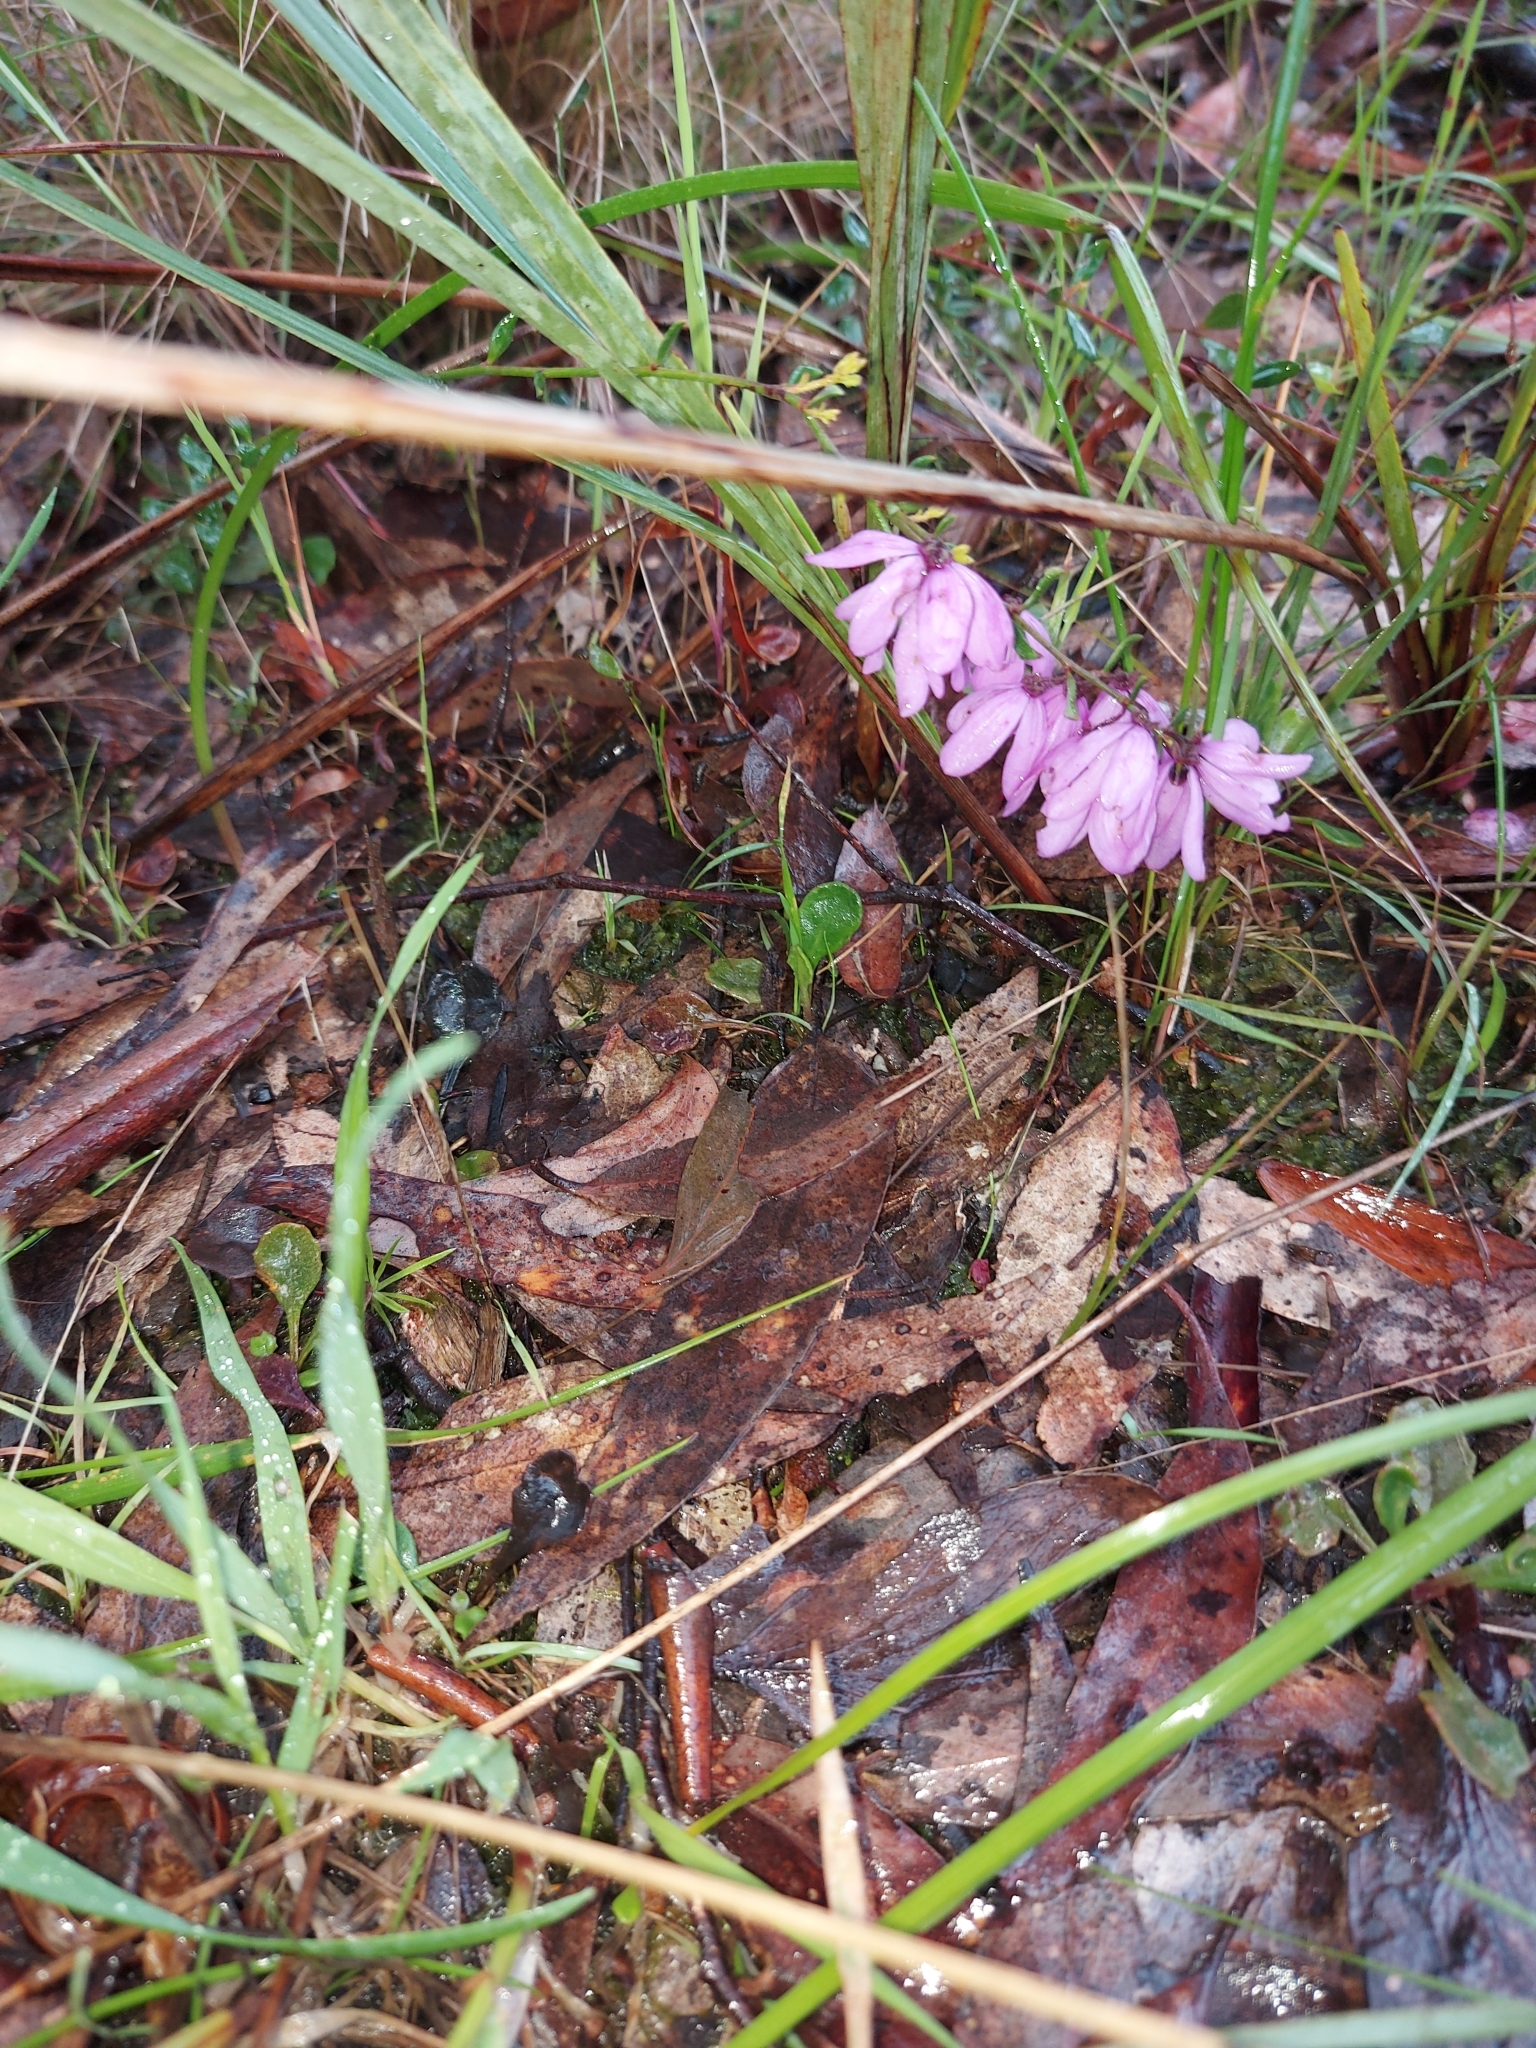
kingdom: Plantae
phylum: Tracheophyta
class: Magnoliopsida
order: Oxalidales
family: Elaeocarpaceae
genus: Tetratheca
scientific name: Tetratheca ciliata
